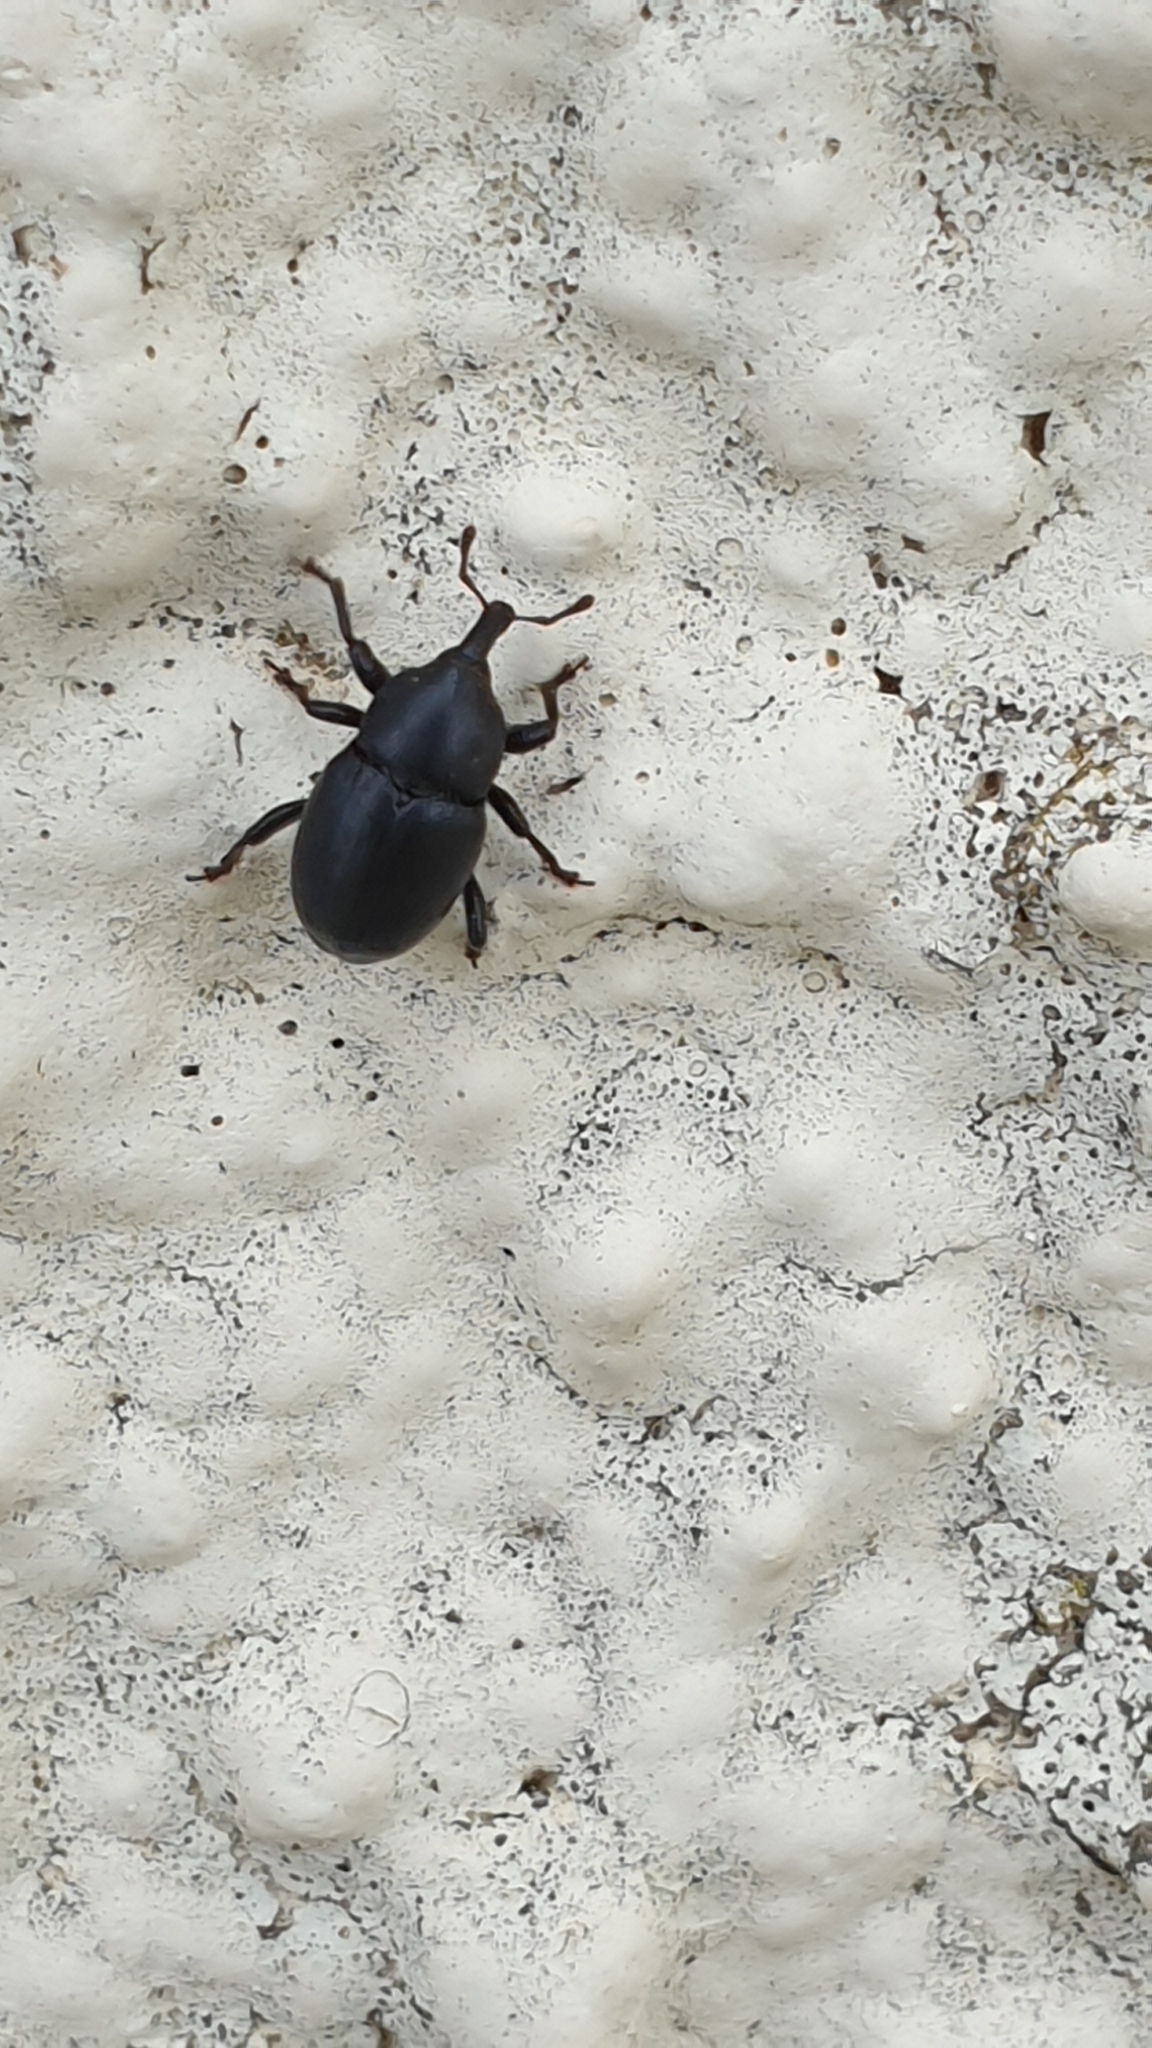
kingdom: Animalia
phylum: Arthropoda
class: Insecta
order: Coleoptera
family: Curculionidae
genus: Malvaevora
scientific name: Malvaevora timida
